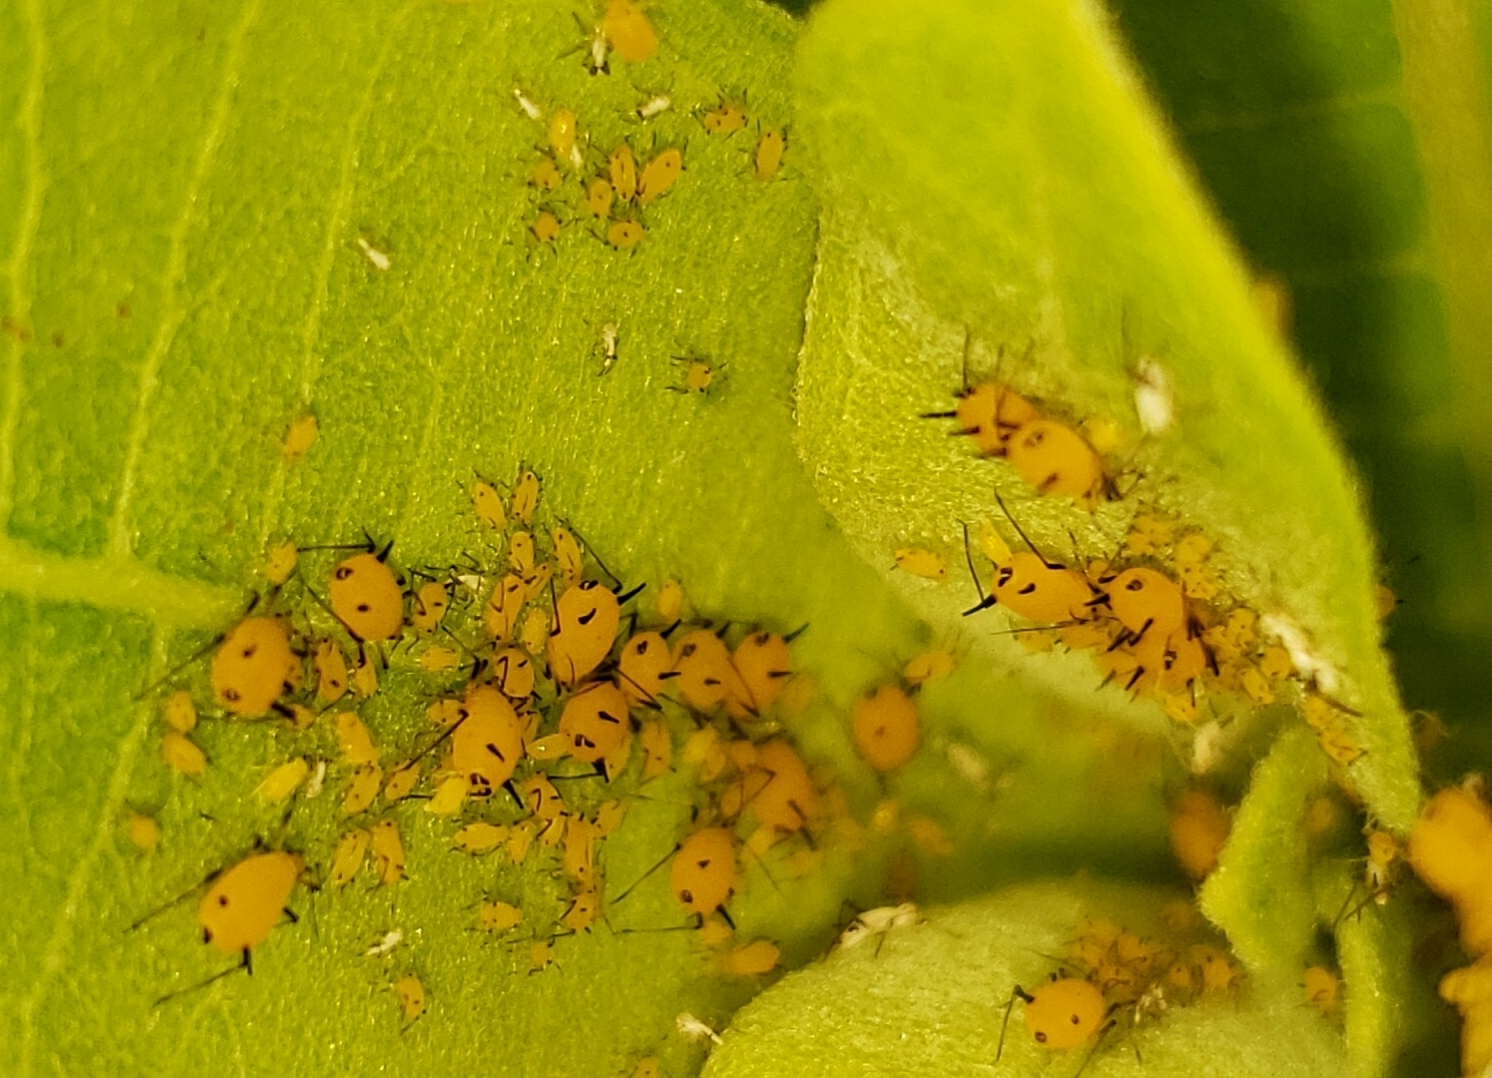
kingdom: Animalia
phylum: Arthropoda
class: Insecta
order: Hemiptera
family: Aphididae
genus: Aphis
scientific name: Aphis nerii
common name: Oleander aphid
